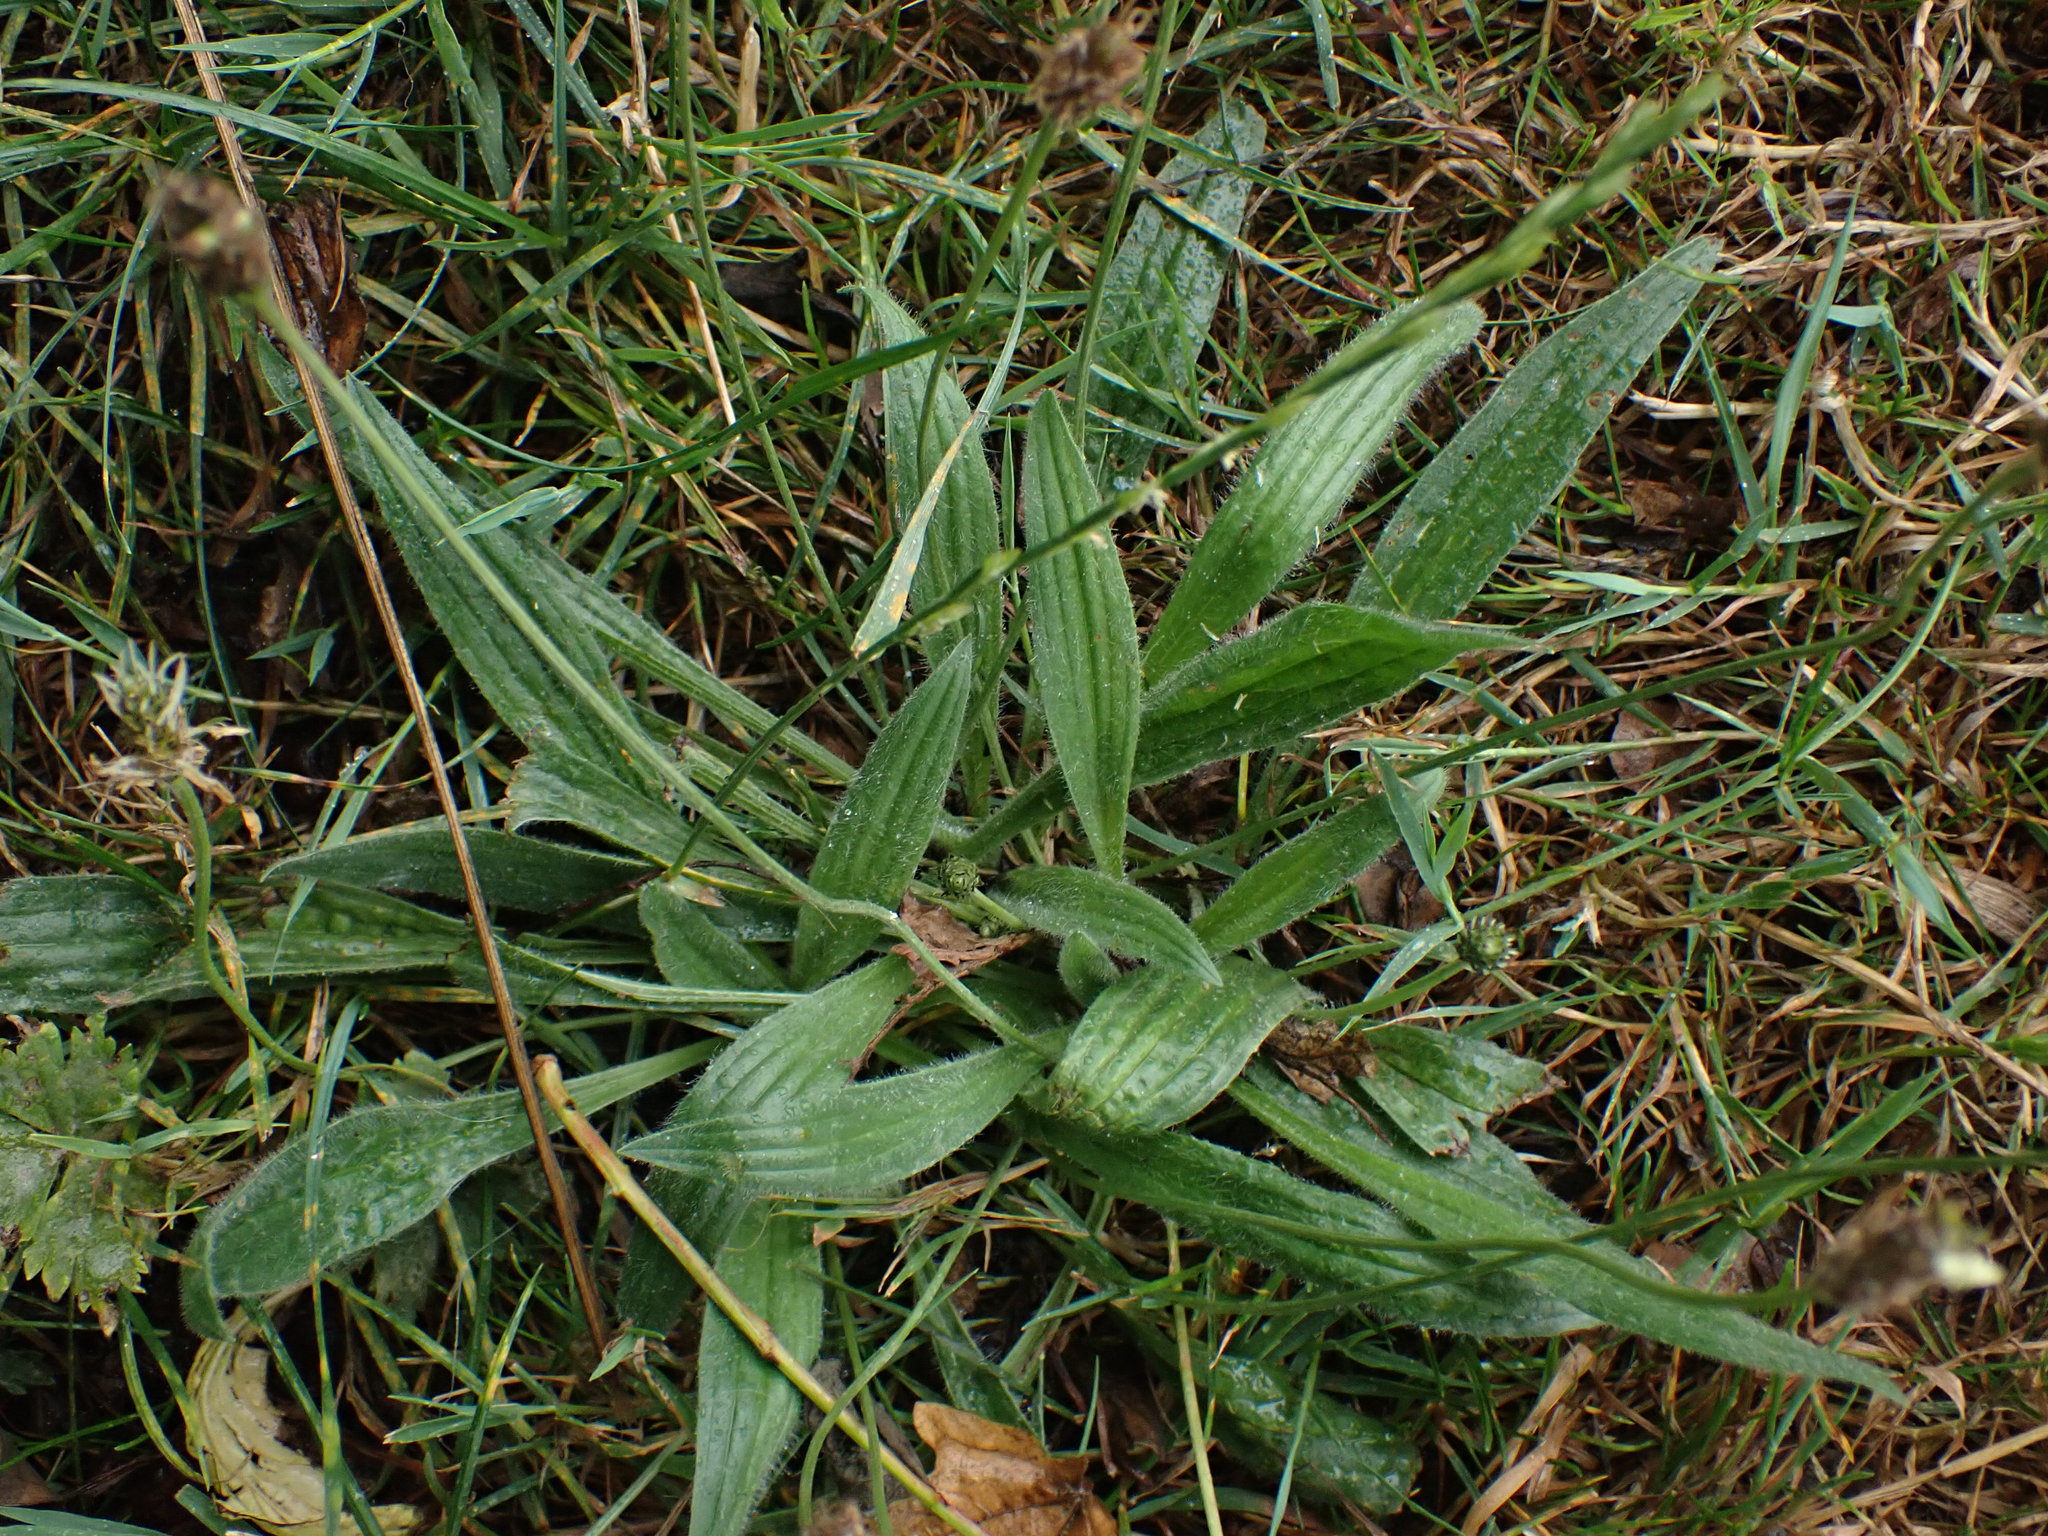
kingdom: Plantae
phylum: Tracheophyta
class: Magnoliopsida
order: Lamiales
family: Plantaginaceae
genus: Plantago
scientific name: Plantago lanceolata
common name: Ribwort plantain
